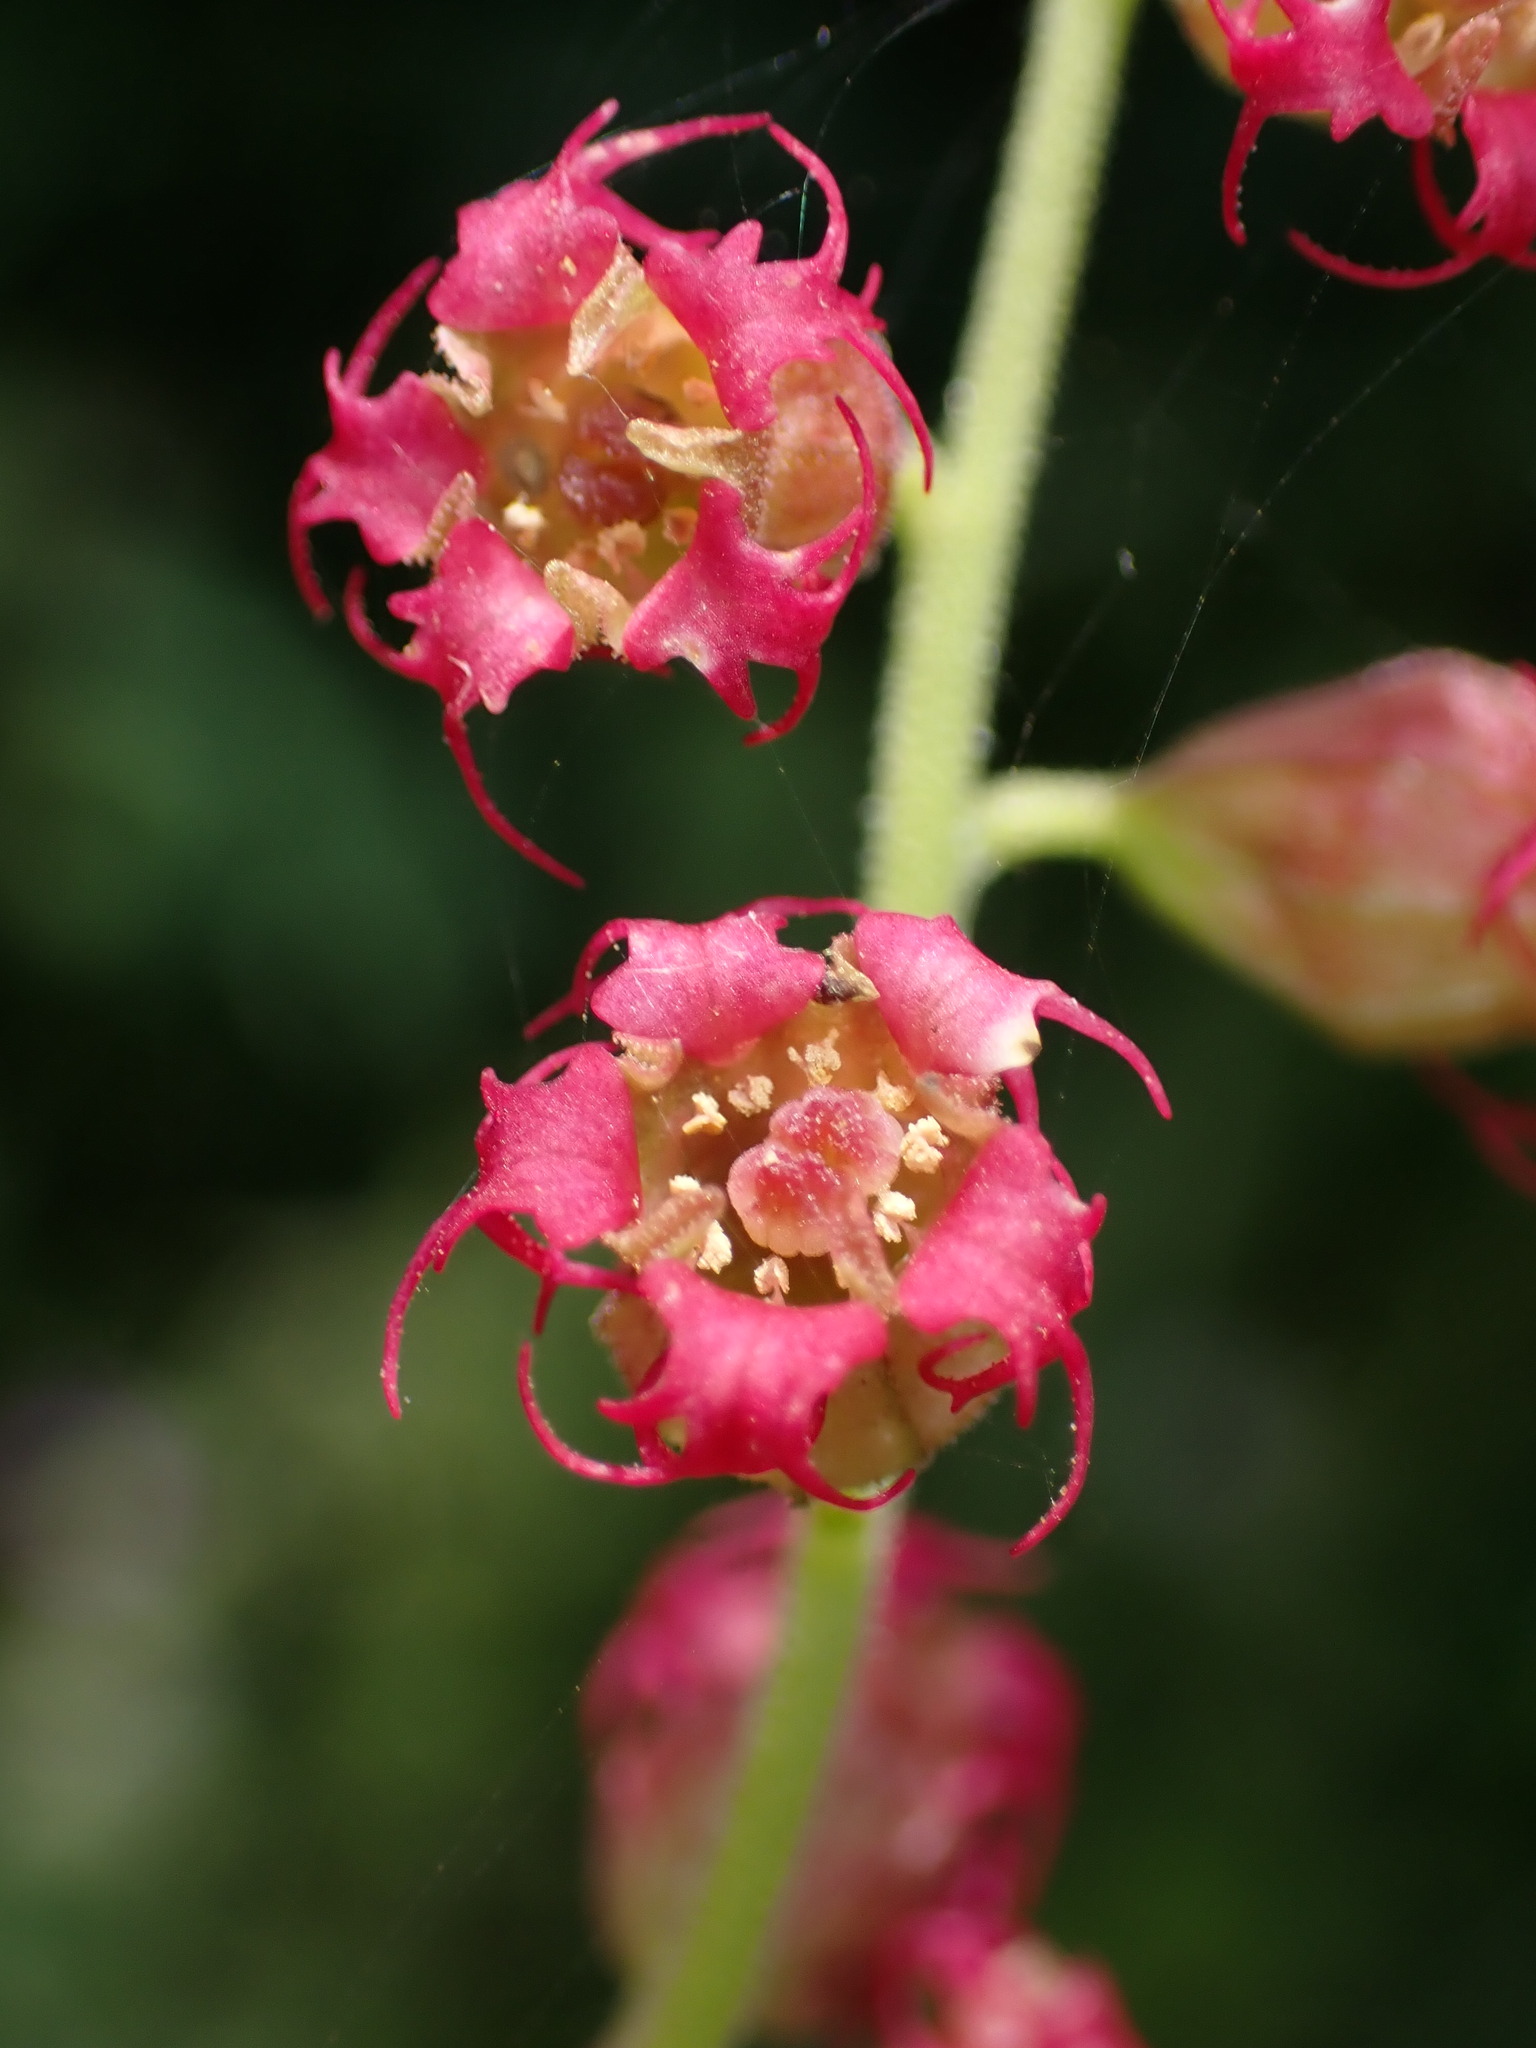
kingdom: Plantae
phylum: Tracheophyta
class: Magnoliopsida
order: Saxifragales
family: Saxifragaceae
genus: Tellima
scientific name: Tellima grandiflora
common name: Fringecups
